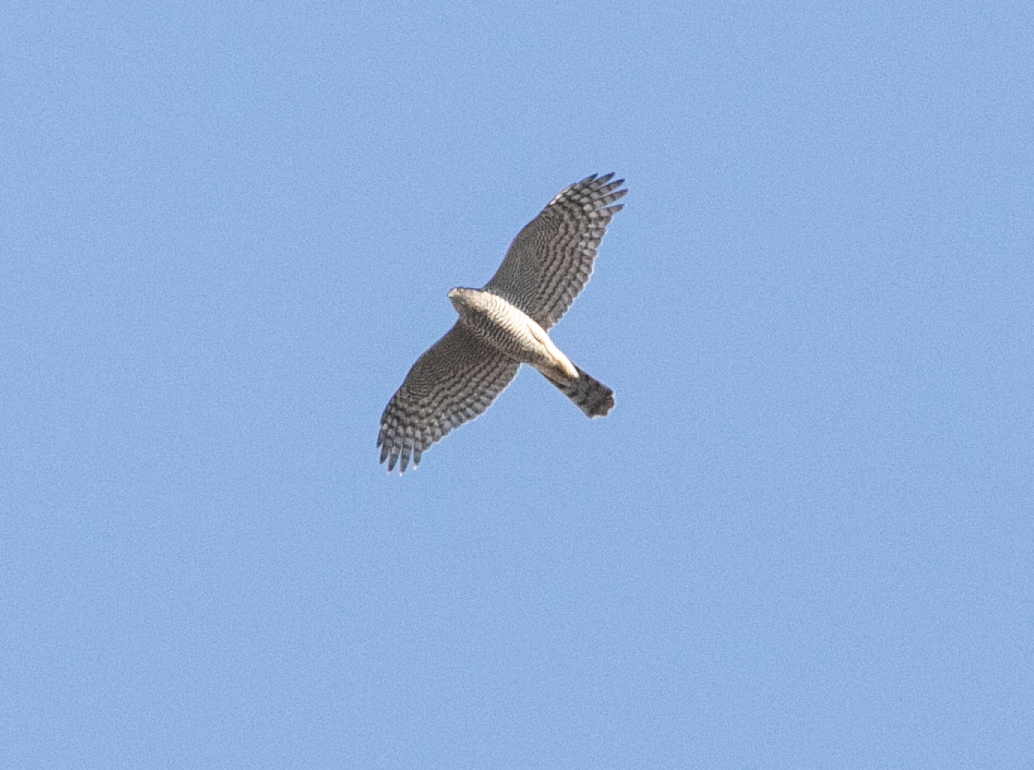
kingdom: Animalia
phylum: Chordata
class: Aves
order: Accipitriformes
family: Accipitridae
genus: Accipiter
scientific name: Accipiter nisus
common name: Eurasian sparrowhawk
